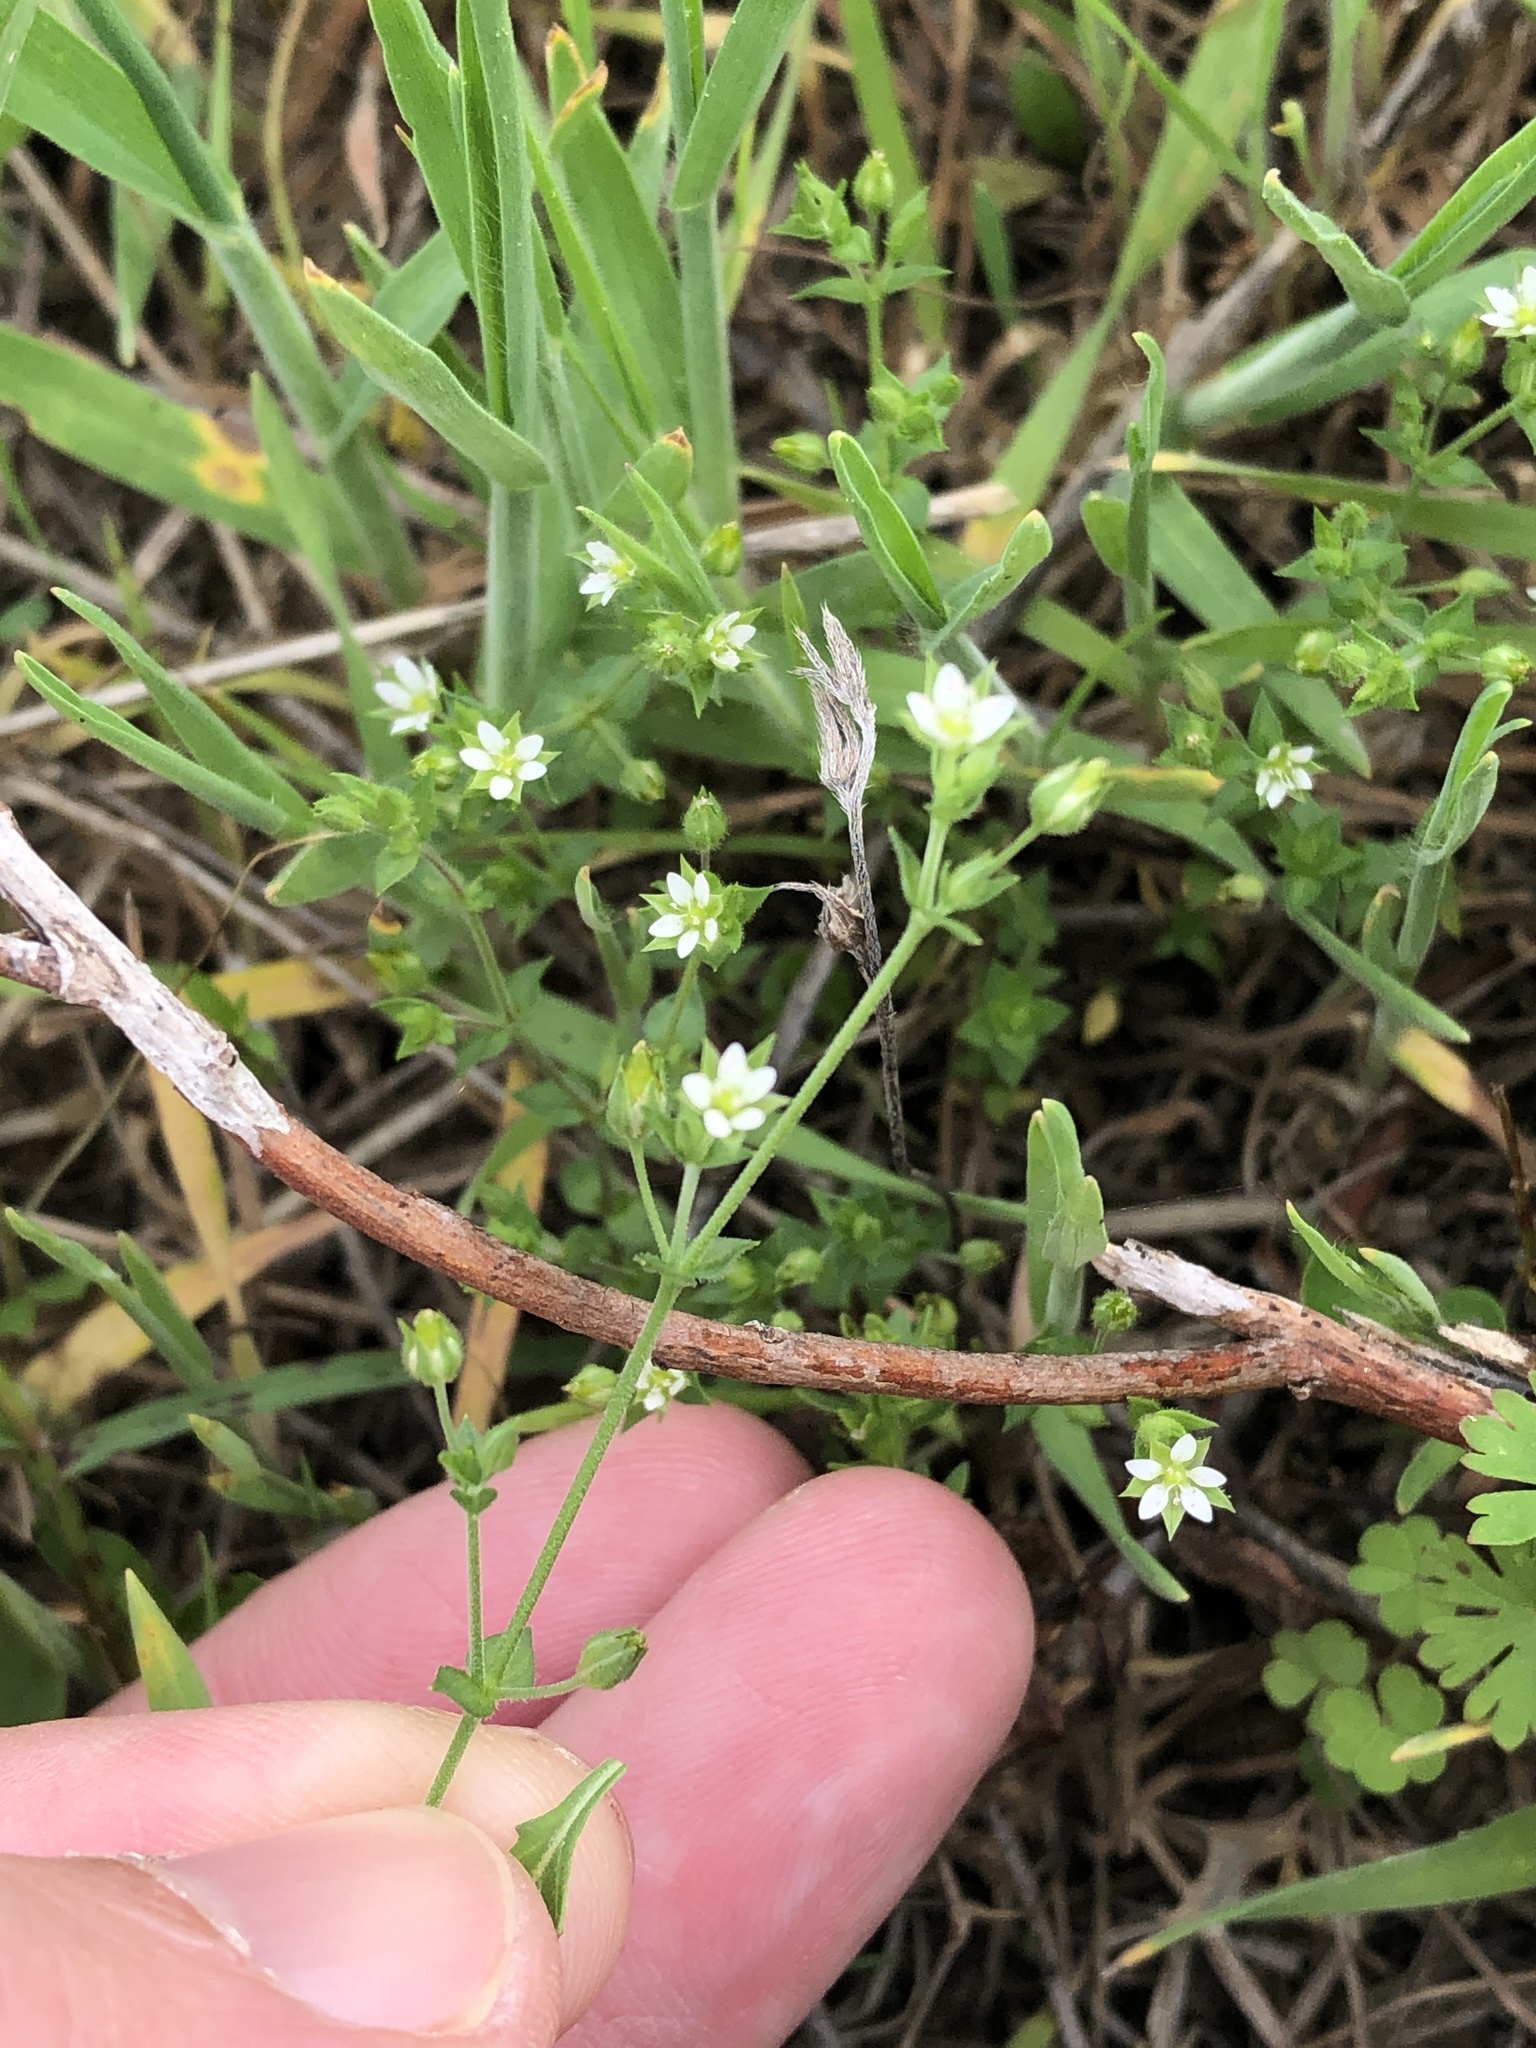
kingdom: Plantae
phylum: Tracheophyta
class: Magnoliopsida
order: Caryophyllales
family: Caryophyllaceae
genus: Arenaria
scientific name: Arenaria serpyllifolia
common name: Thyme-leaved sandwort
